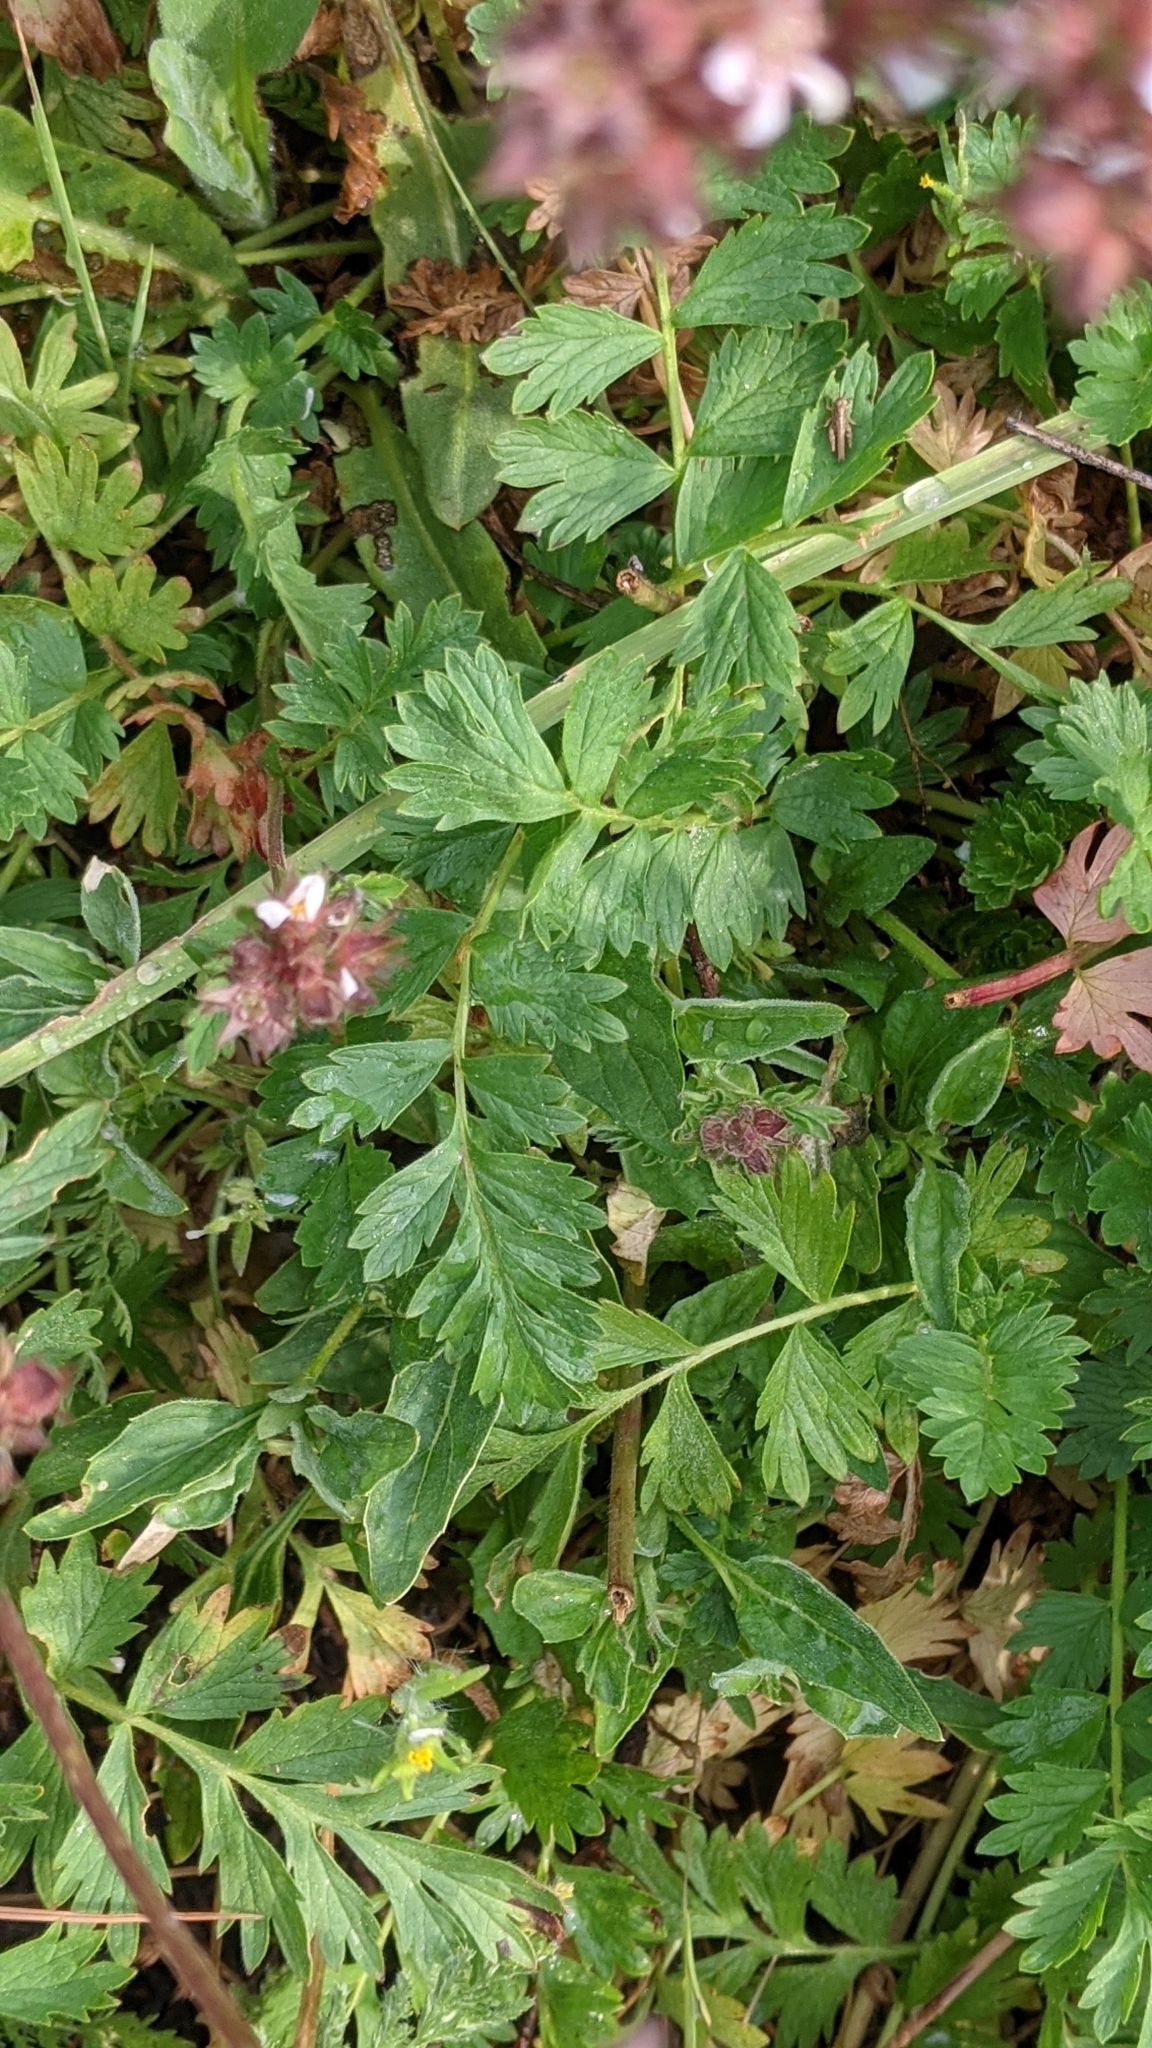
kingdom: Plantae
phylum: Tracheophyta
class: Magnoliopsida
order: Rosales
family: Rosaceae
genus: Potentilla
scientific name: Potentilla douglasii
